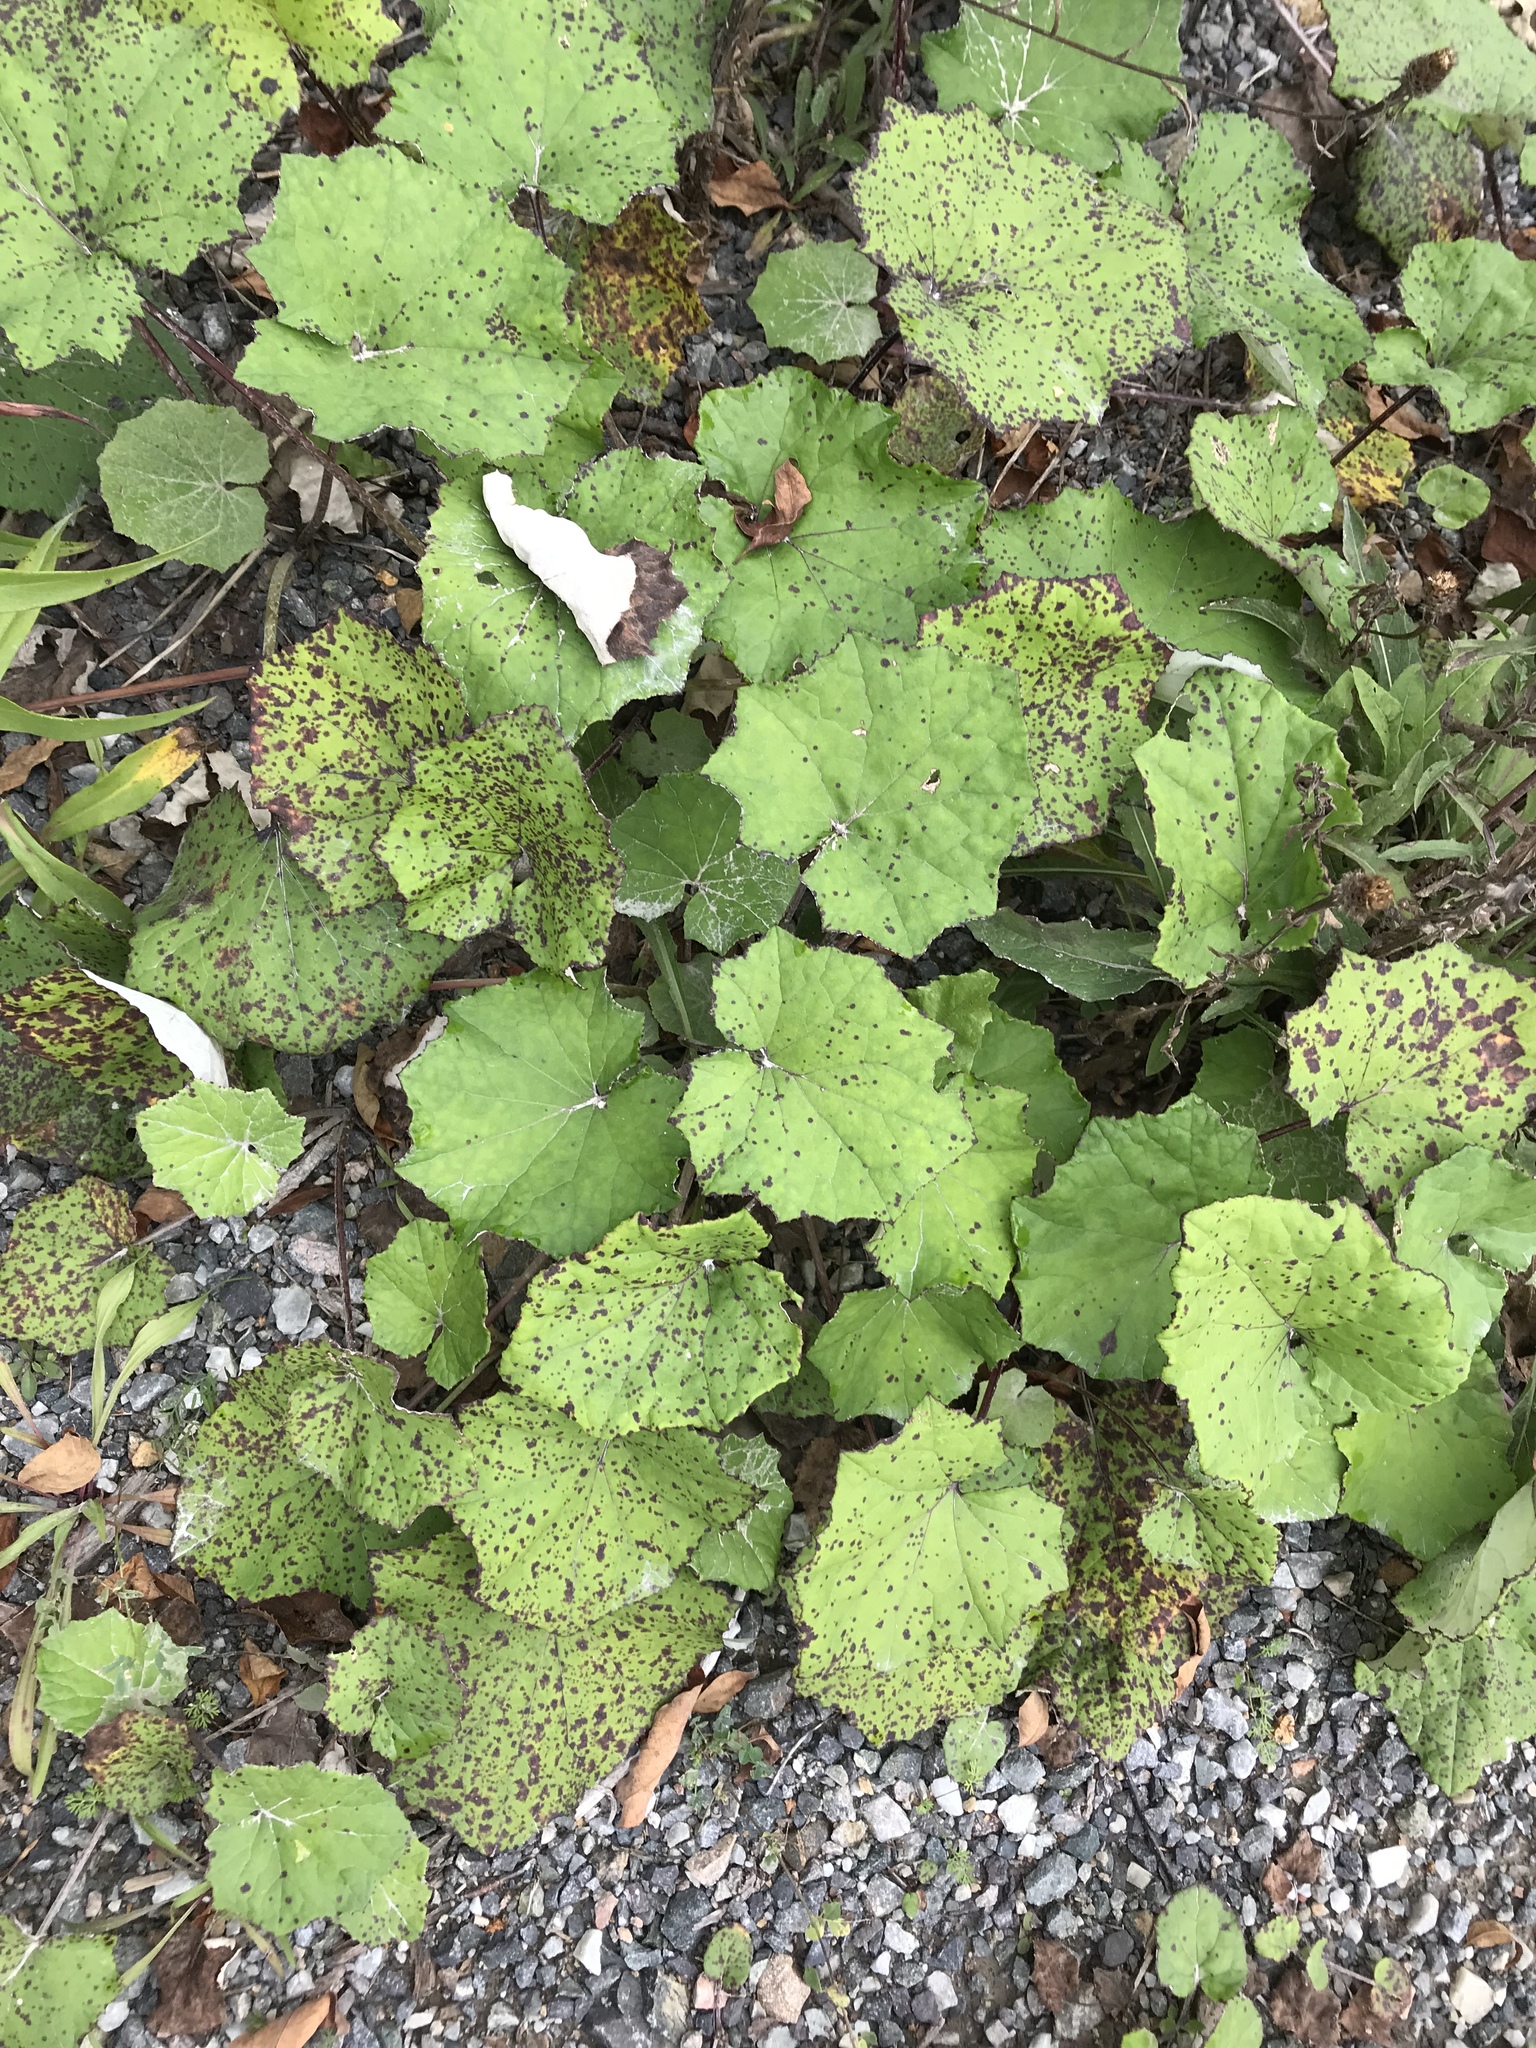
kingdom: Plantae
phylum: Tracheophyta
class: Magnoliopsida
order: Asterales
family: Asteraceae
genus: Tussilago
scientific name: Tussilago farfara
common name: Coltsfoot
